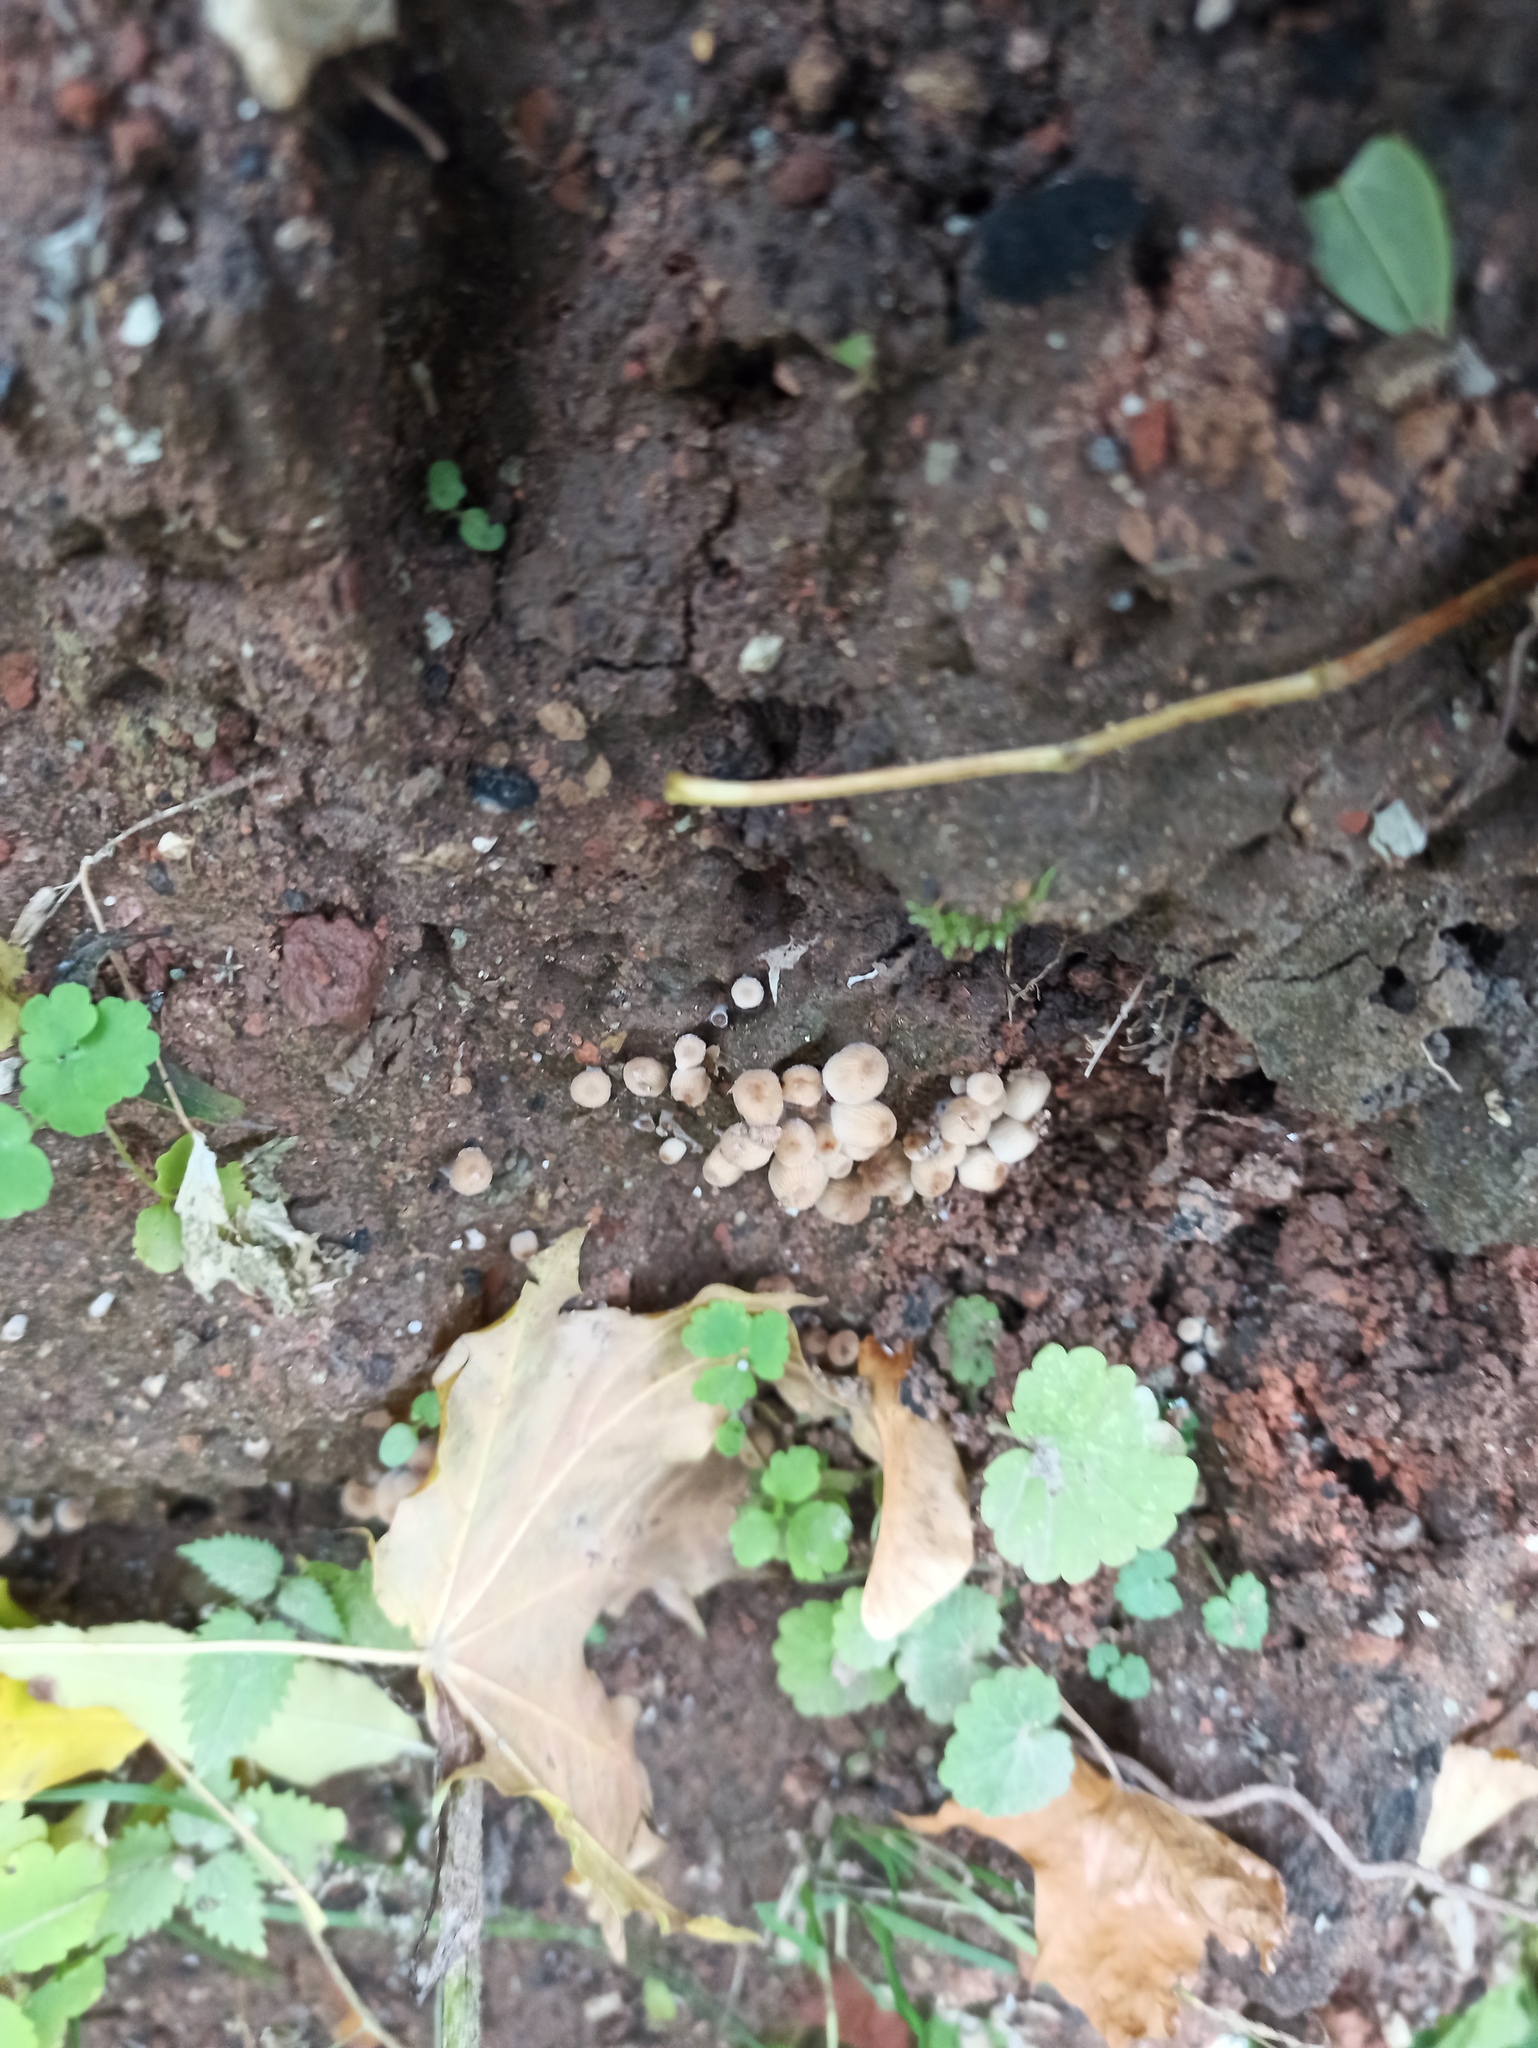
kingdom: Fungi
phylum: Basidiomycota
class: Agaricomycetes
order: Agaricales
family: Psathyrellaceae
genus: Coprinellus
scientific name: Coprinellus disseminatus
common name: Fairies' bonnets
